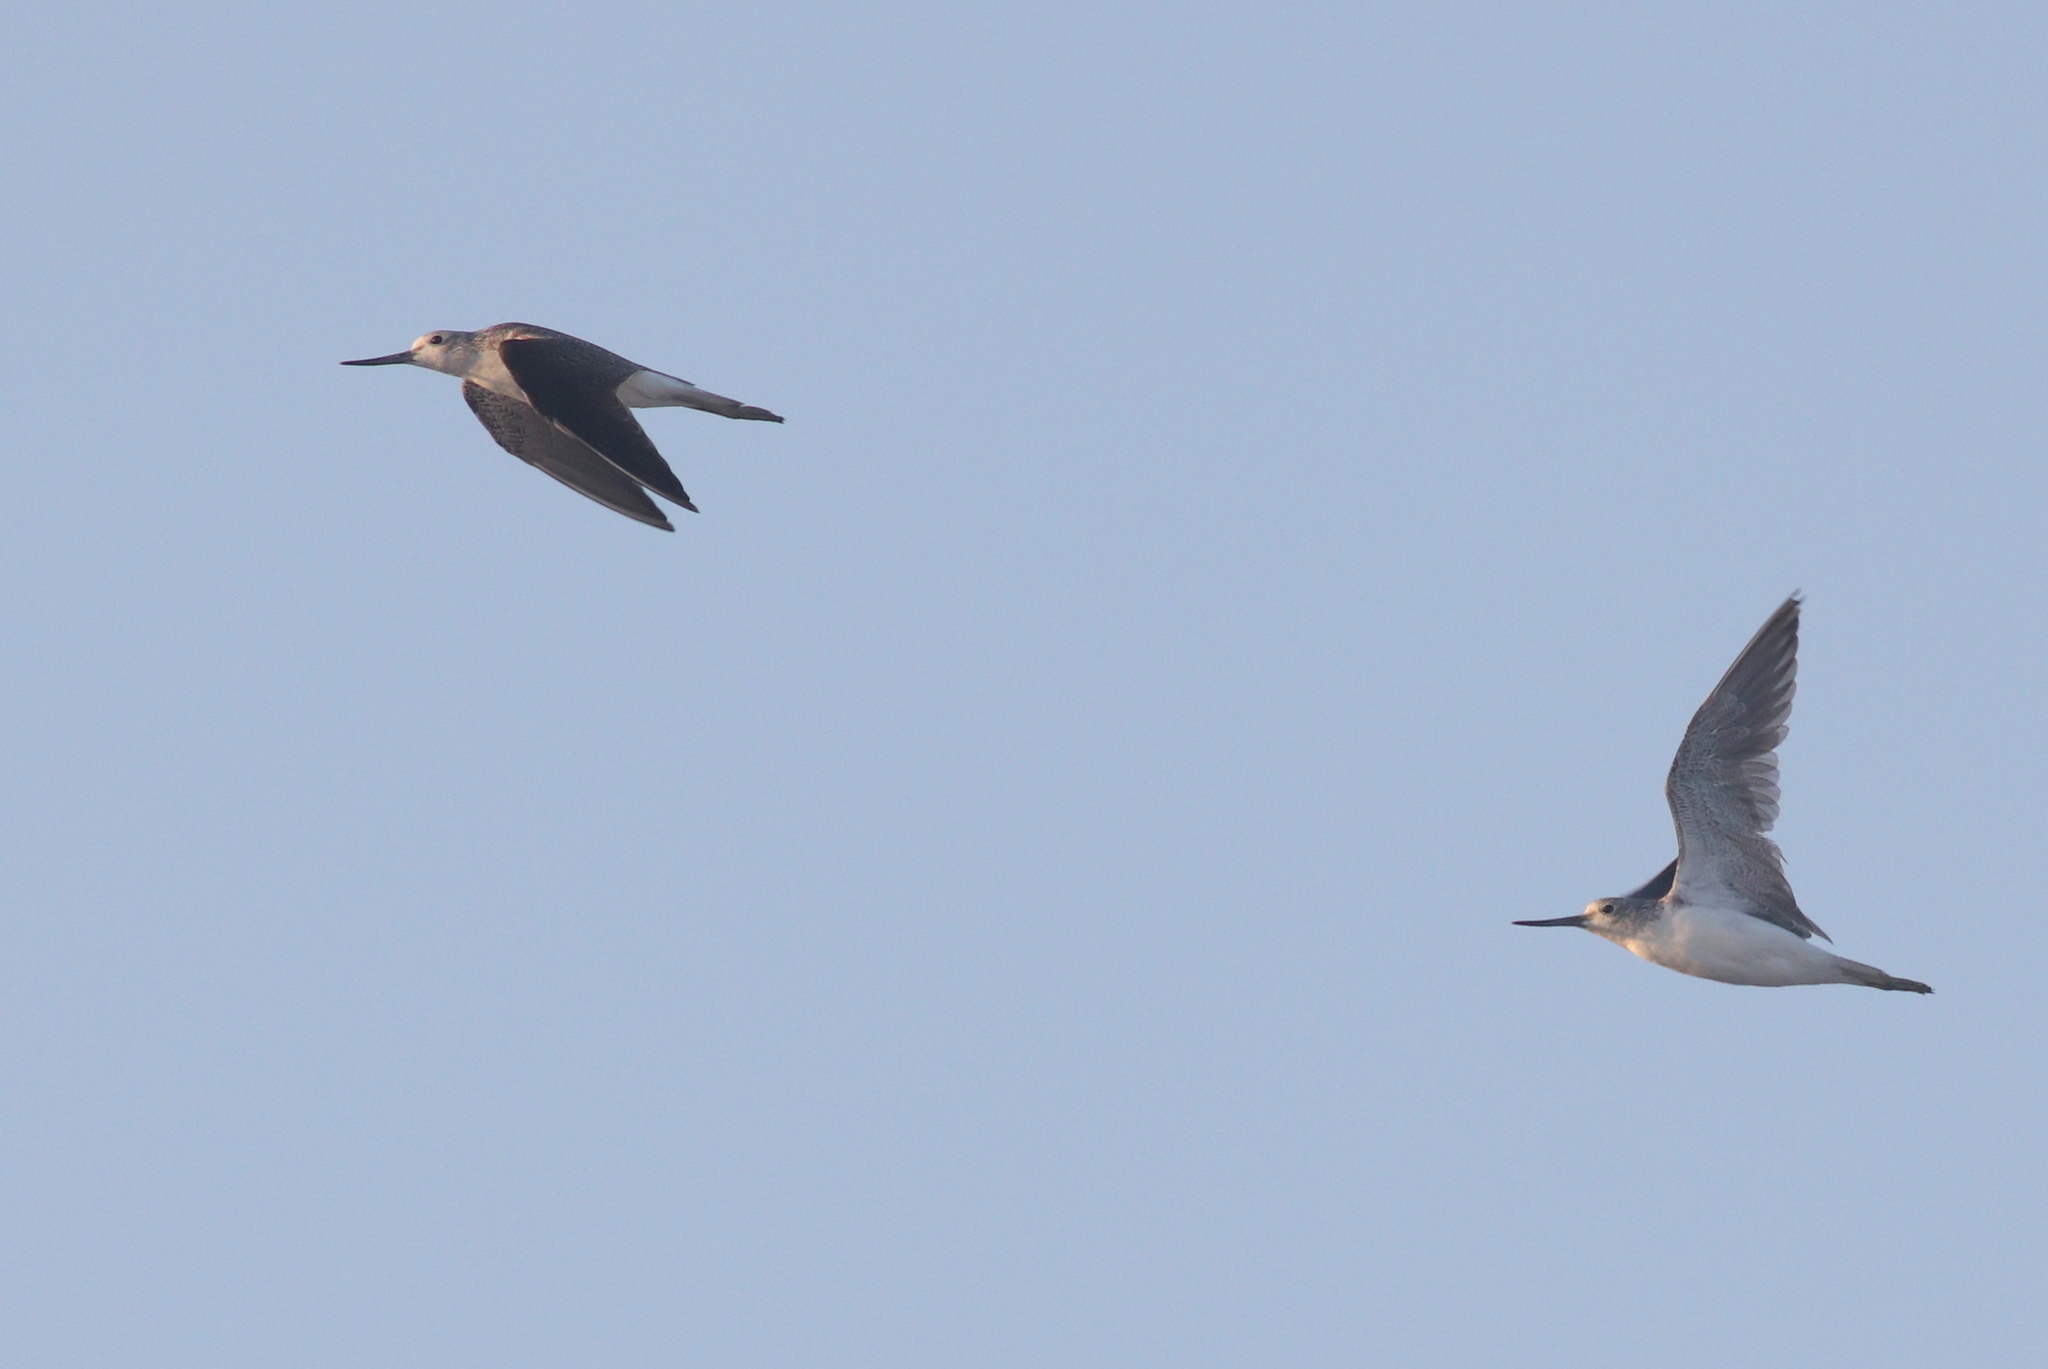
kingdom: Animalia
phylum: Chordata
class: Aves
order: Charadriiformes
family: Scolopacidae
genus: Tringa
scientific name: Tringa nebularia
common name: Common greenshank
